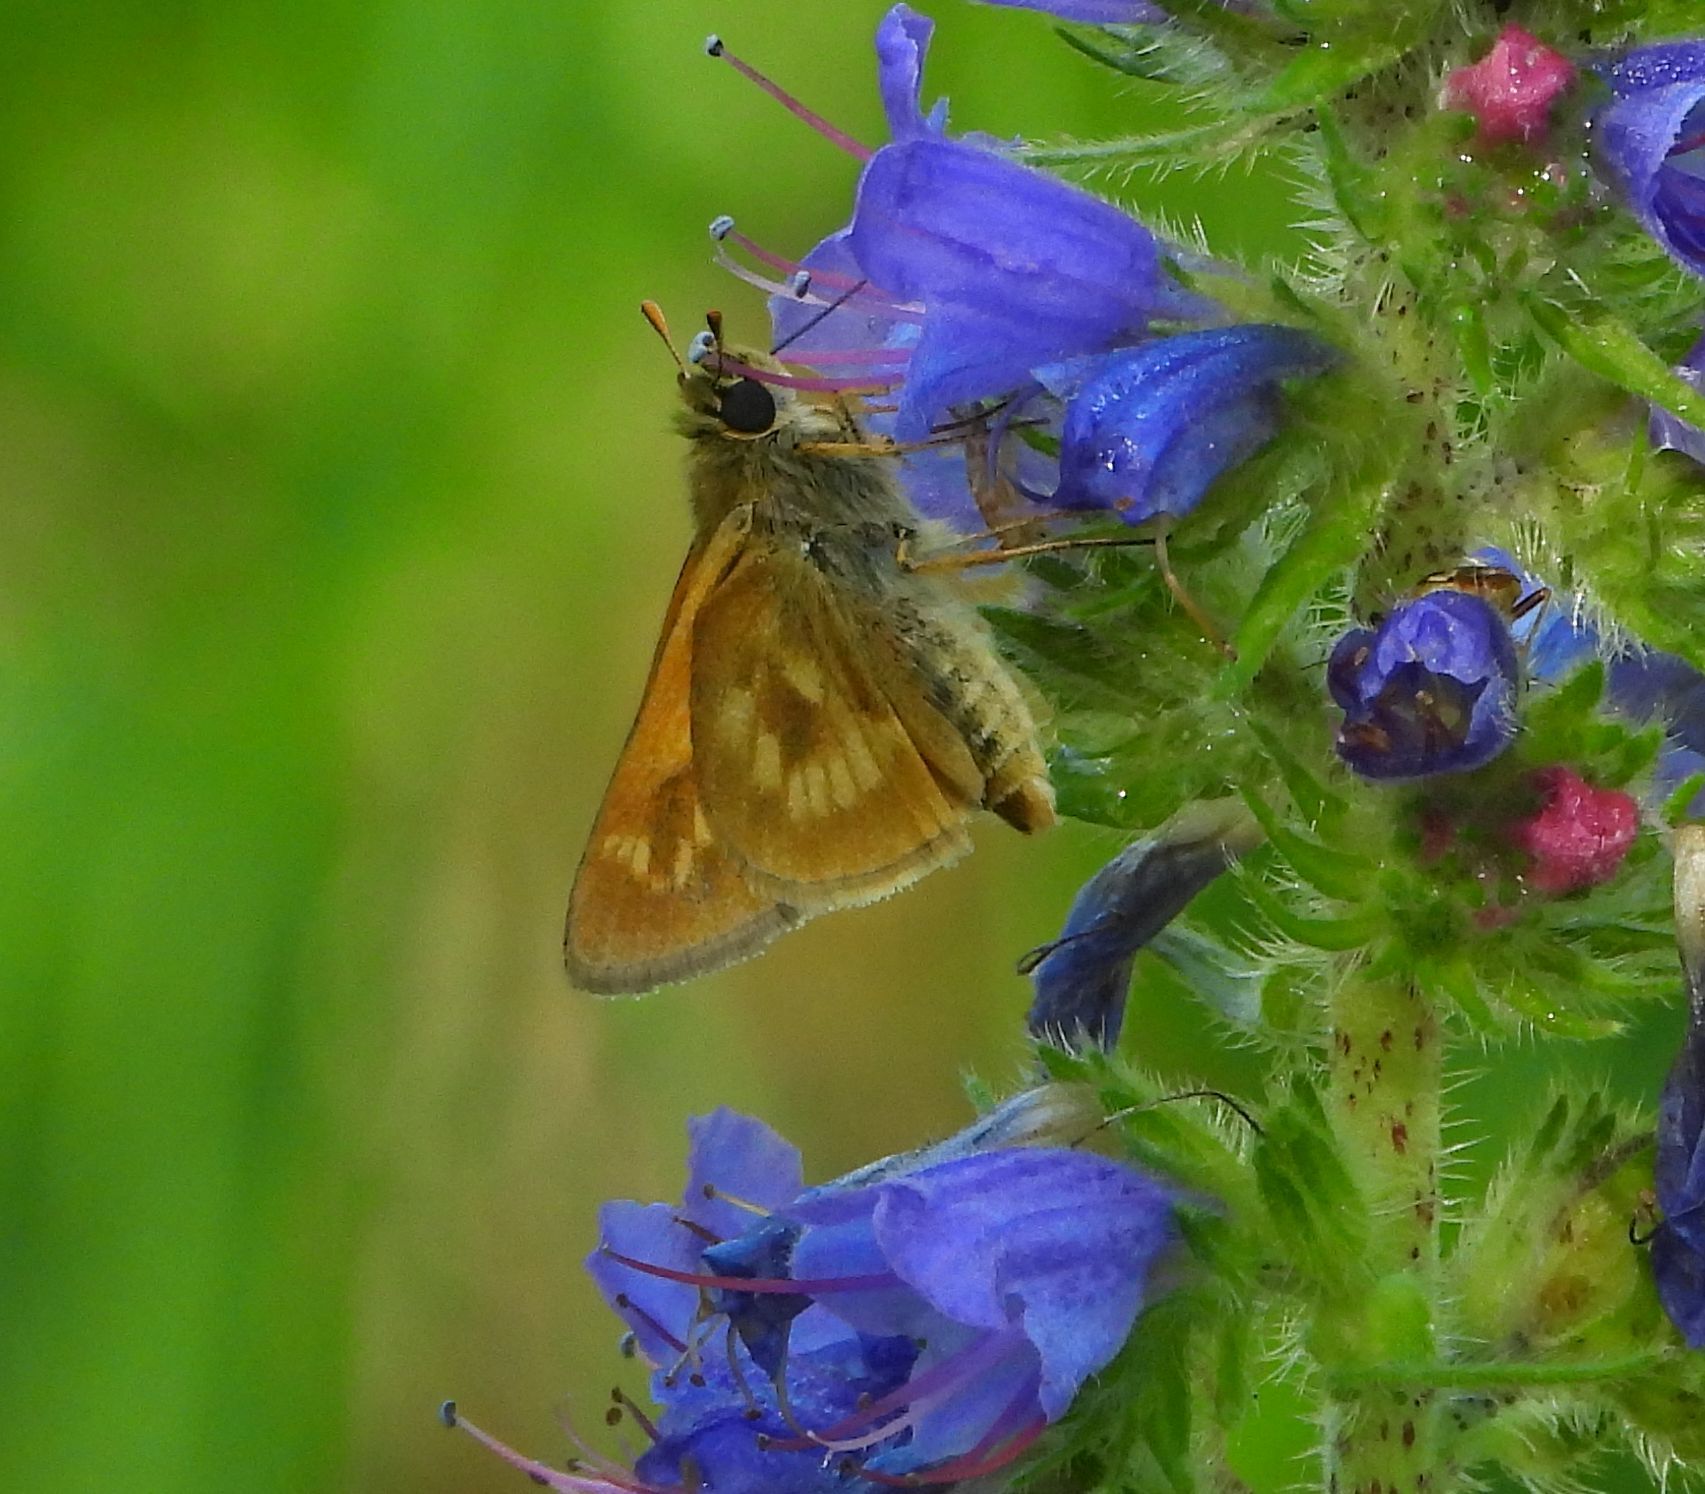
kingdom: Animalia
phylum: Arthropoda
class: Insecta
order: Lepidoptera
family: Hesperiidae
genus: Polites
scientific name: Polites mystic
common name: Long dash
